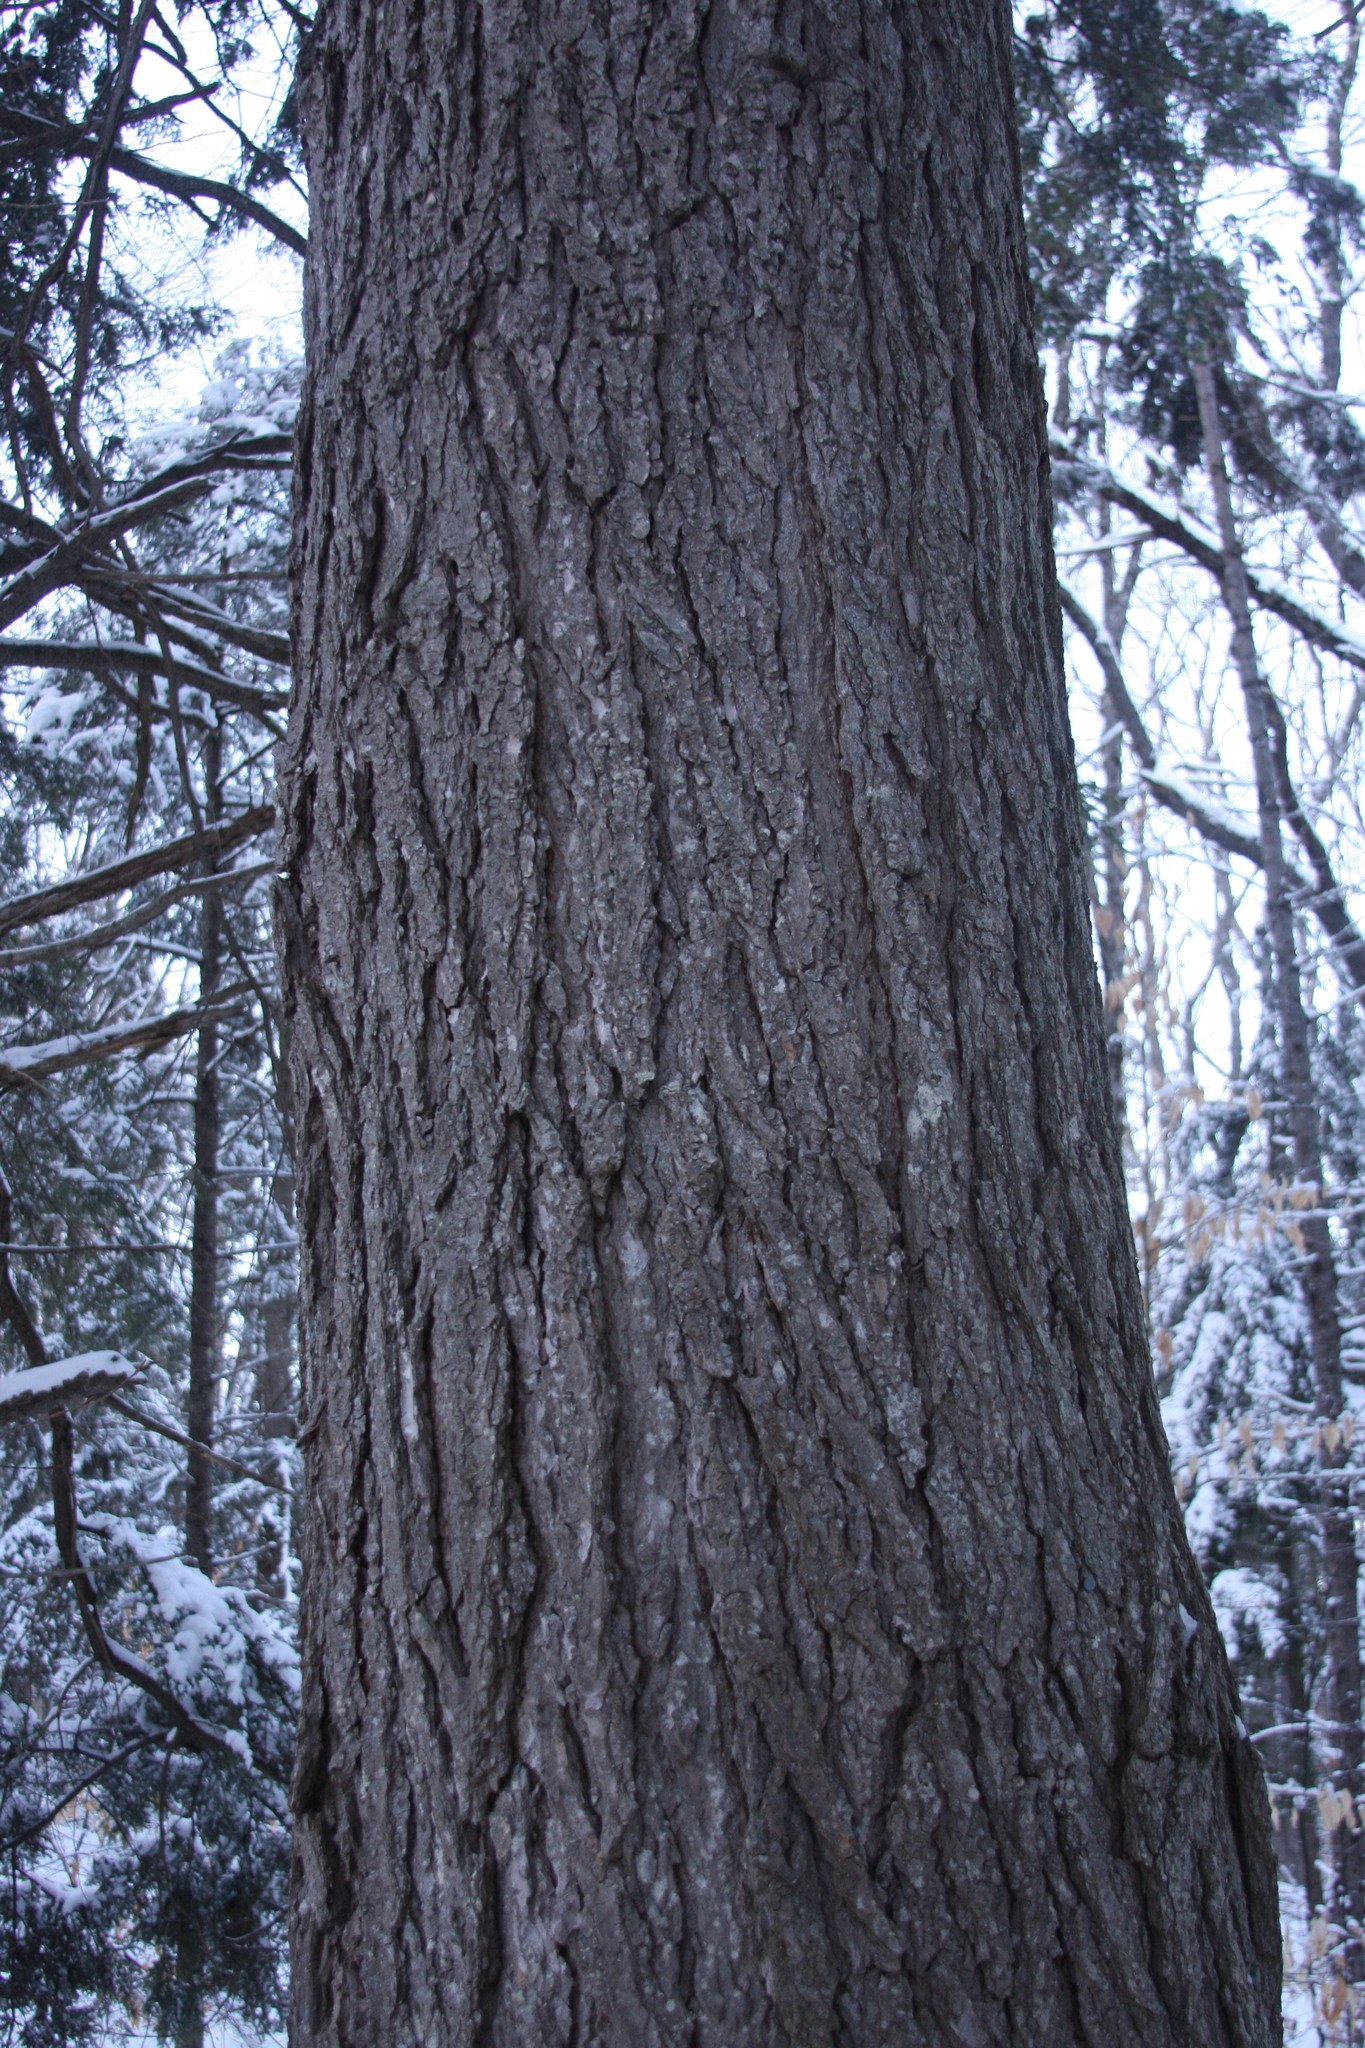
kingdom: Plantae
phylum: Tracheophyta
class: Pinopsida
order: Pinales
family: Pinaceae
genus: Tsuga
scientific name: Tsuga canadensis
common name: Eastern hemlock
